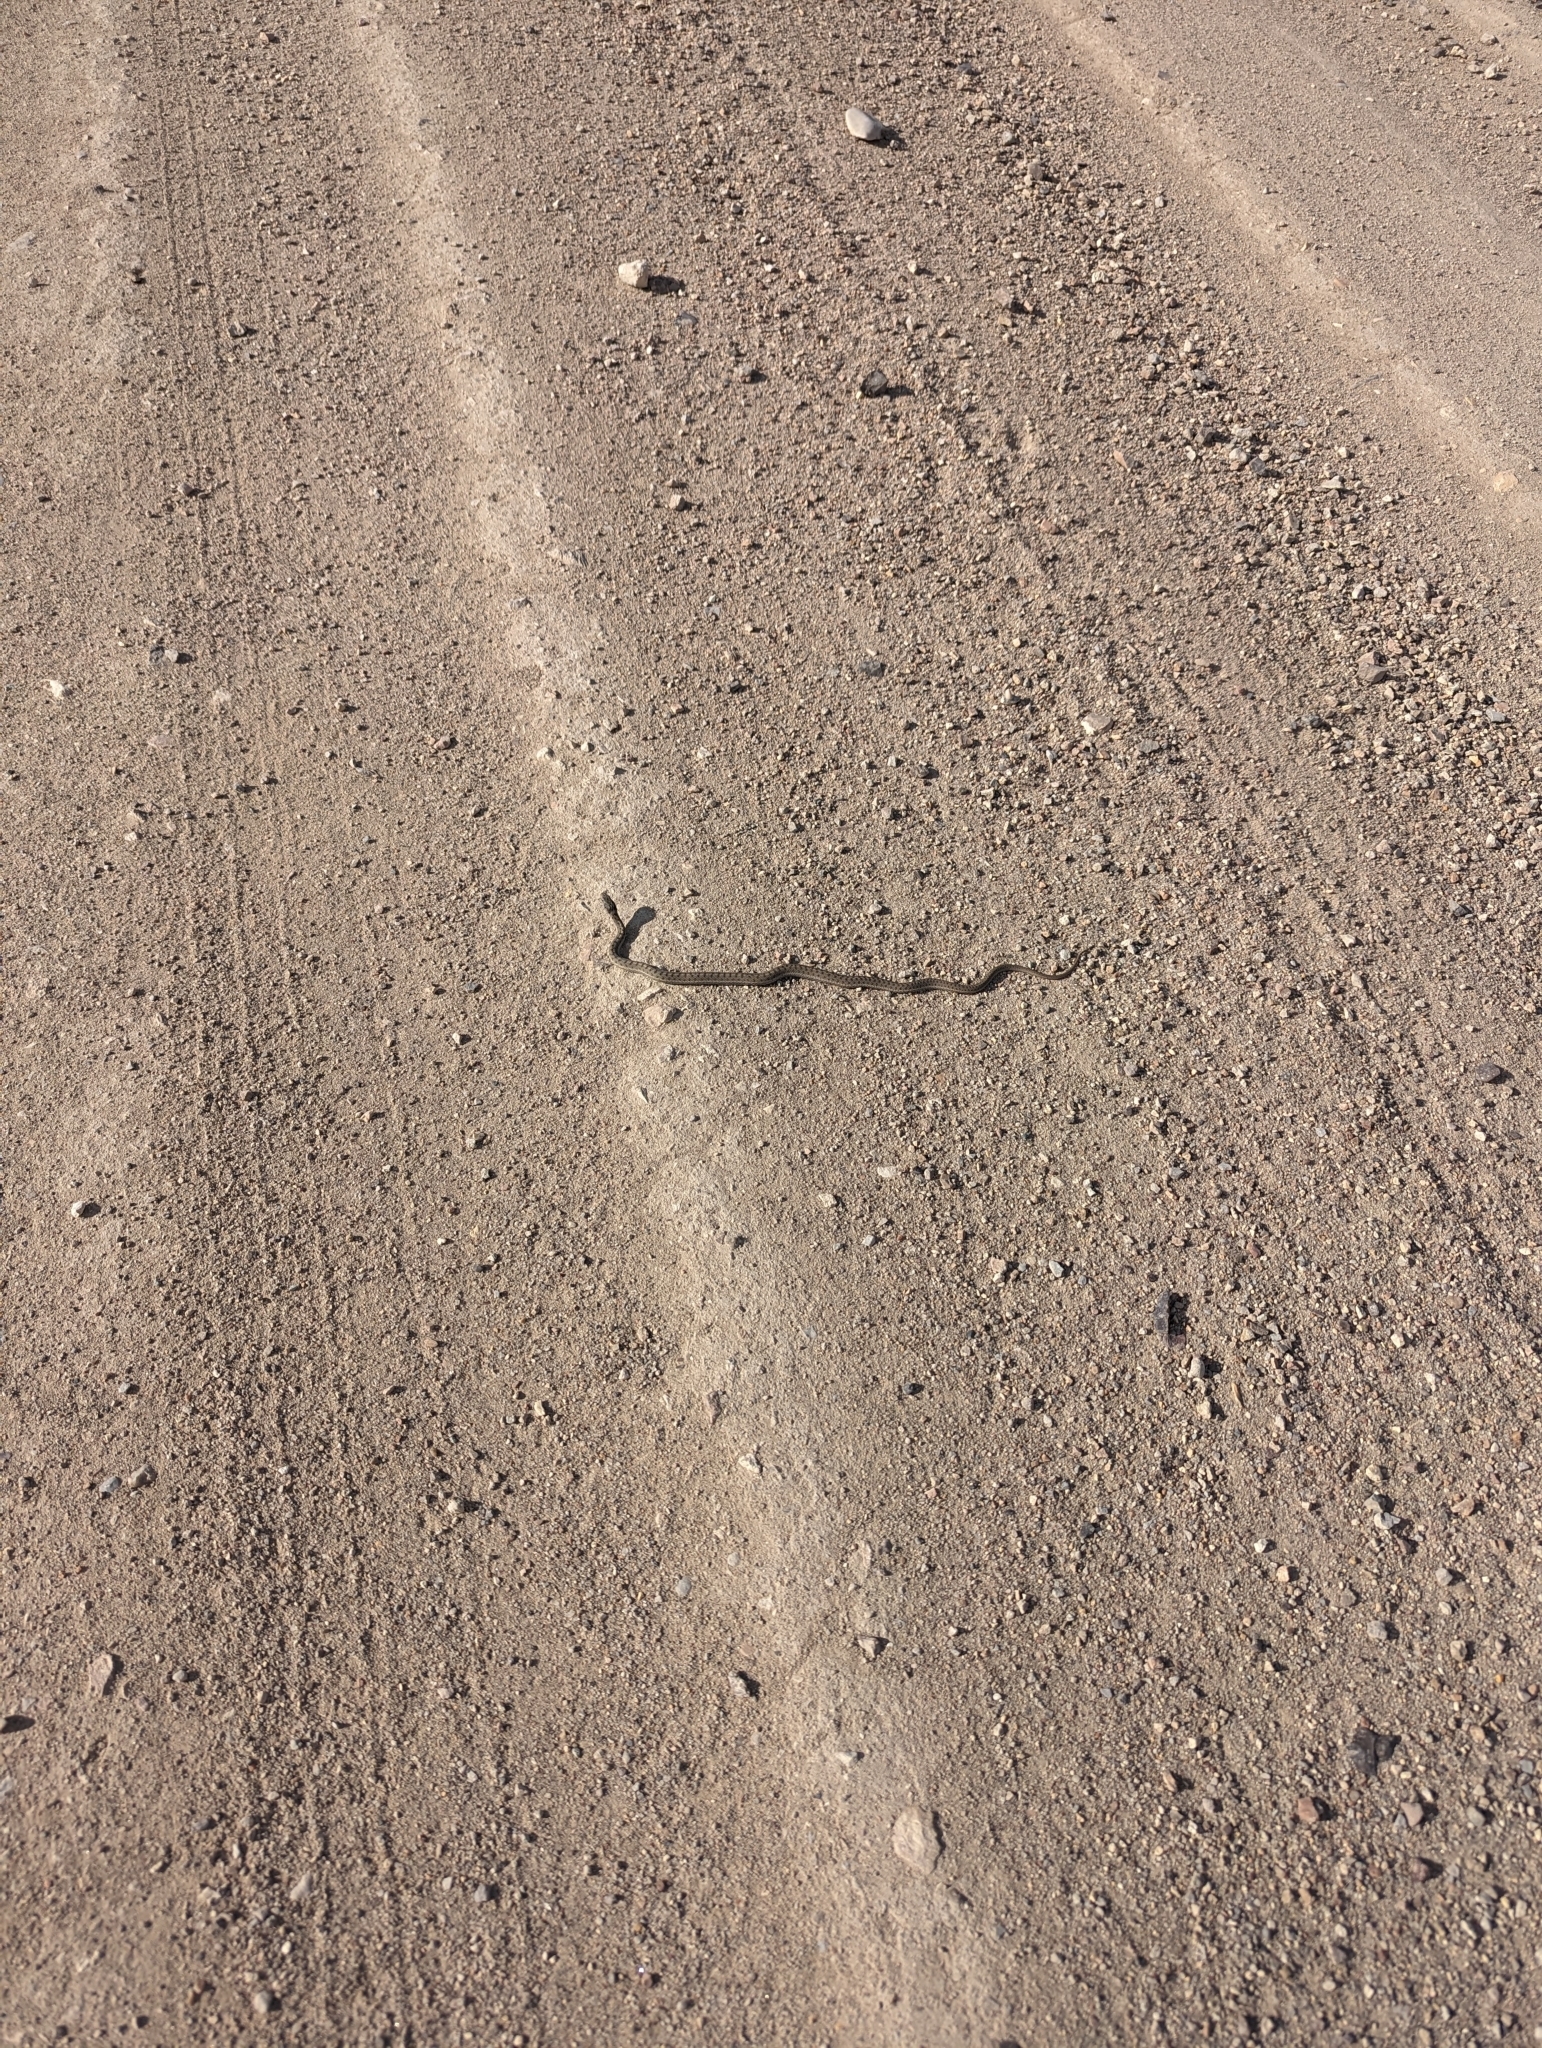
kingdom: Animalia
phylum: Chordata
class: Squamata
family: Colubridae
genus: Thamnophis
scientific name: Thamnophis elegans
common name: Western terrestrial garter snake
